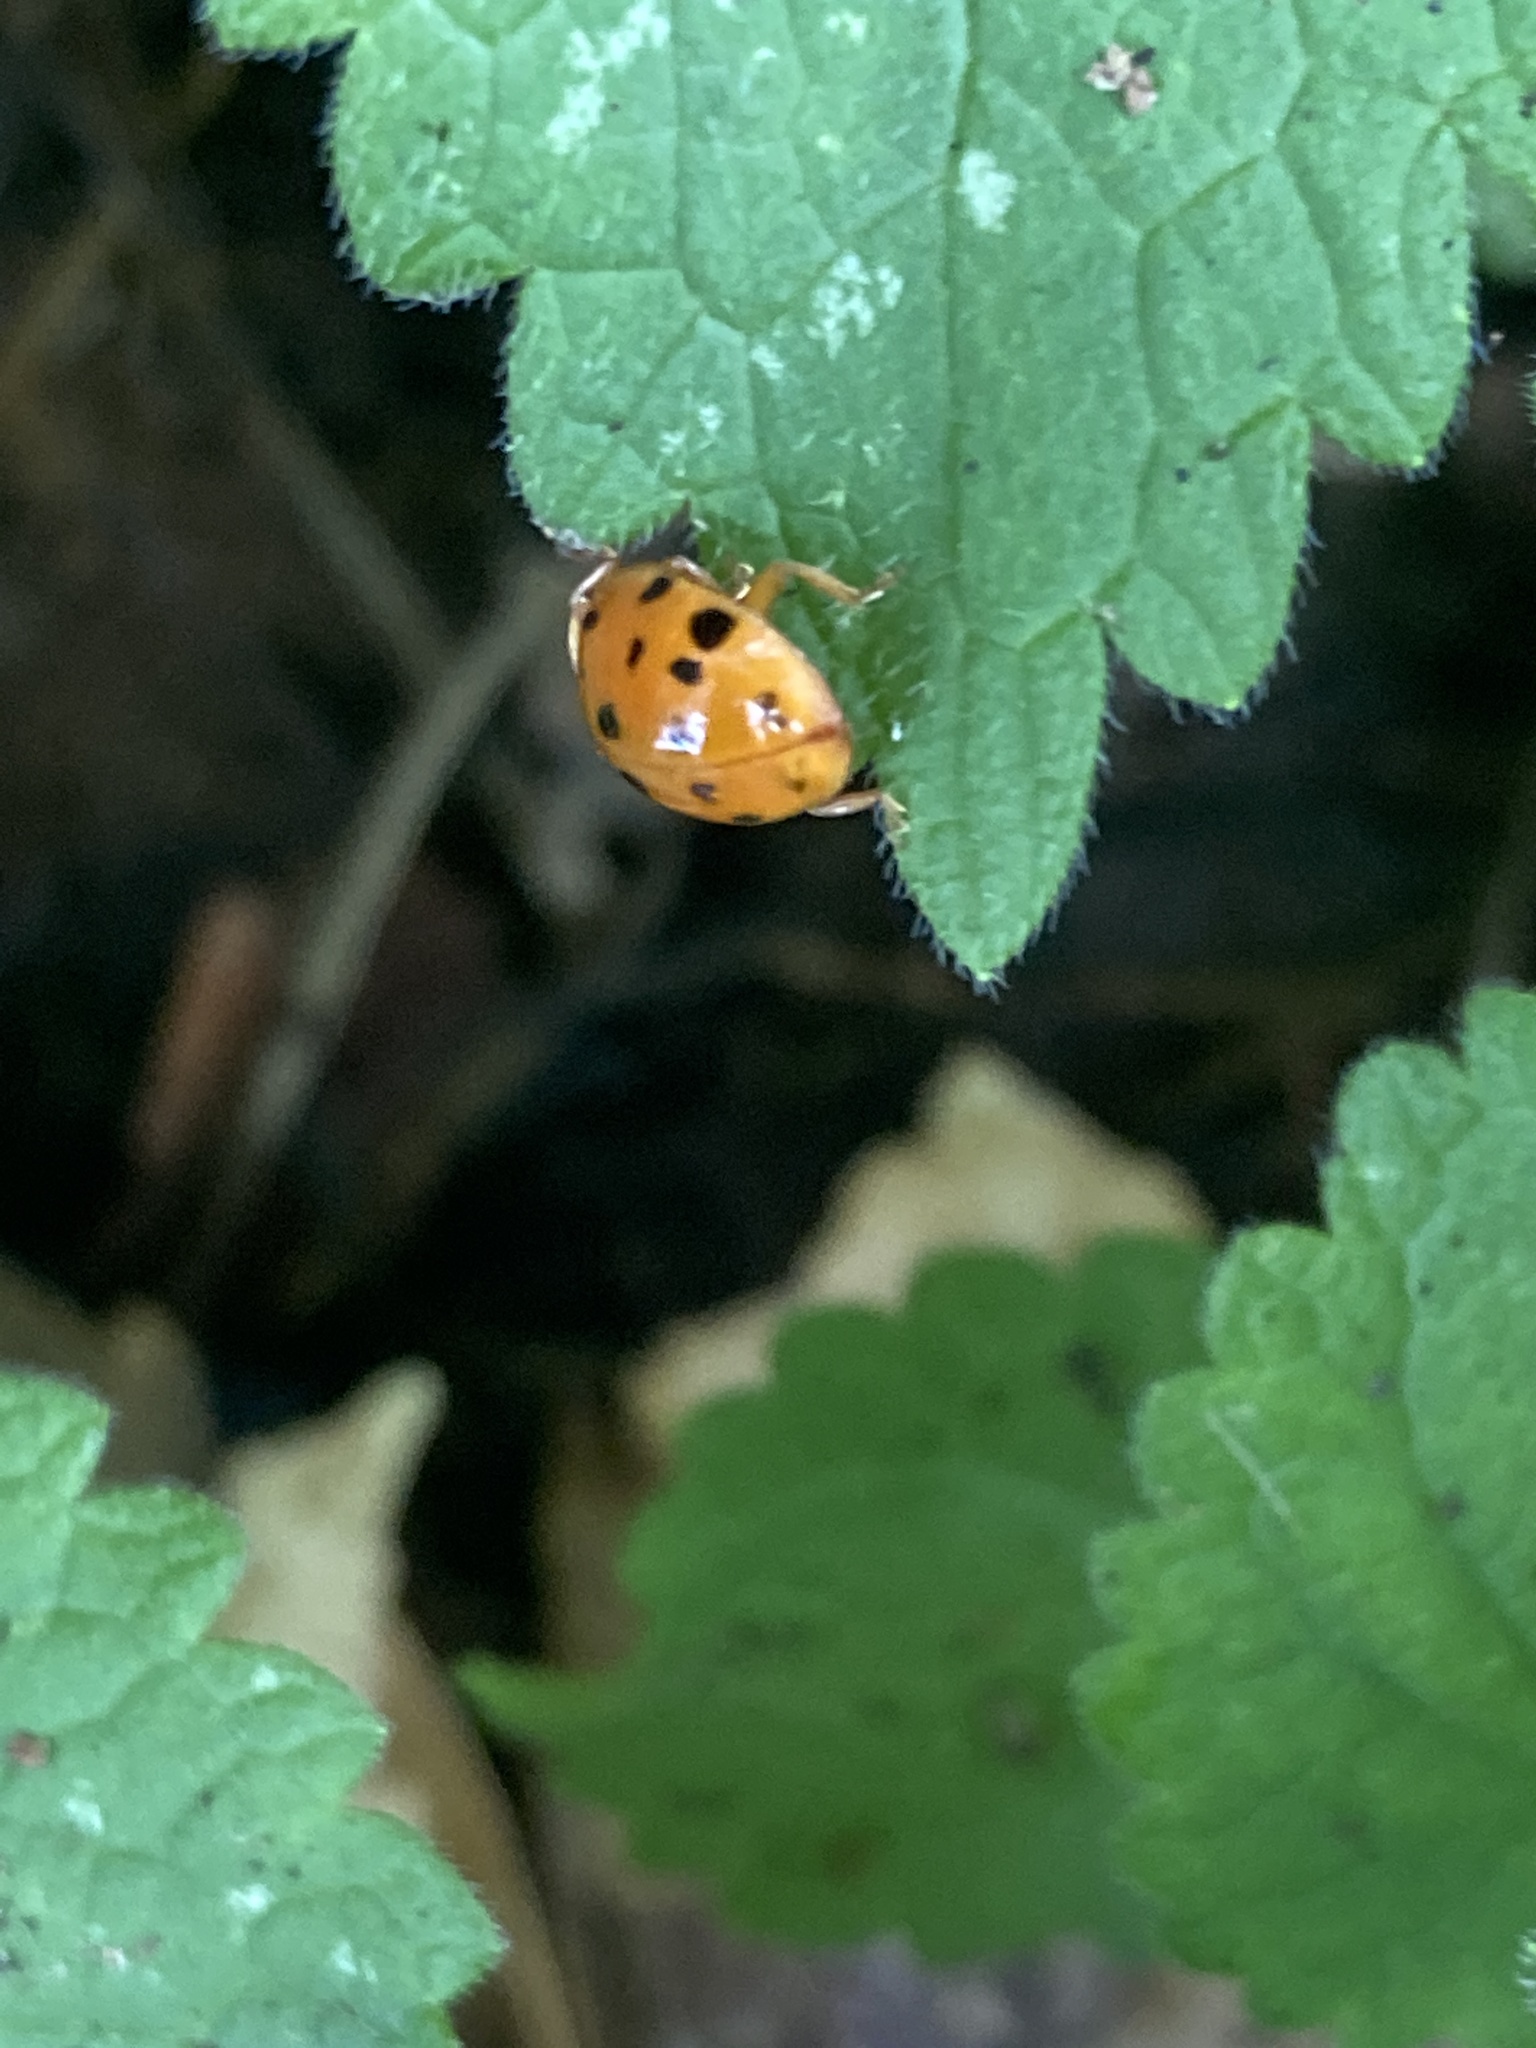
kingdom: Animalia
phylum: Arthropoda
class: Insecta
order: Coleoptera
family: Coccinellidae
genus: Harmonia
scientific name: Harmonia axyridis
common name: Harlequin ladybird
